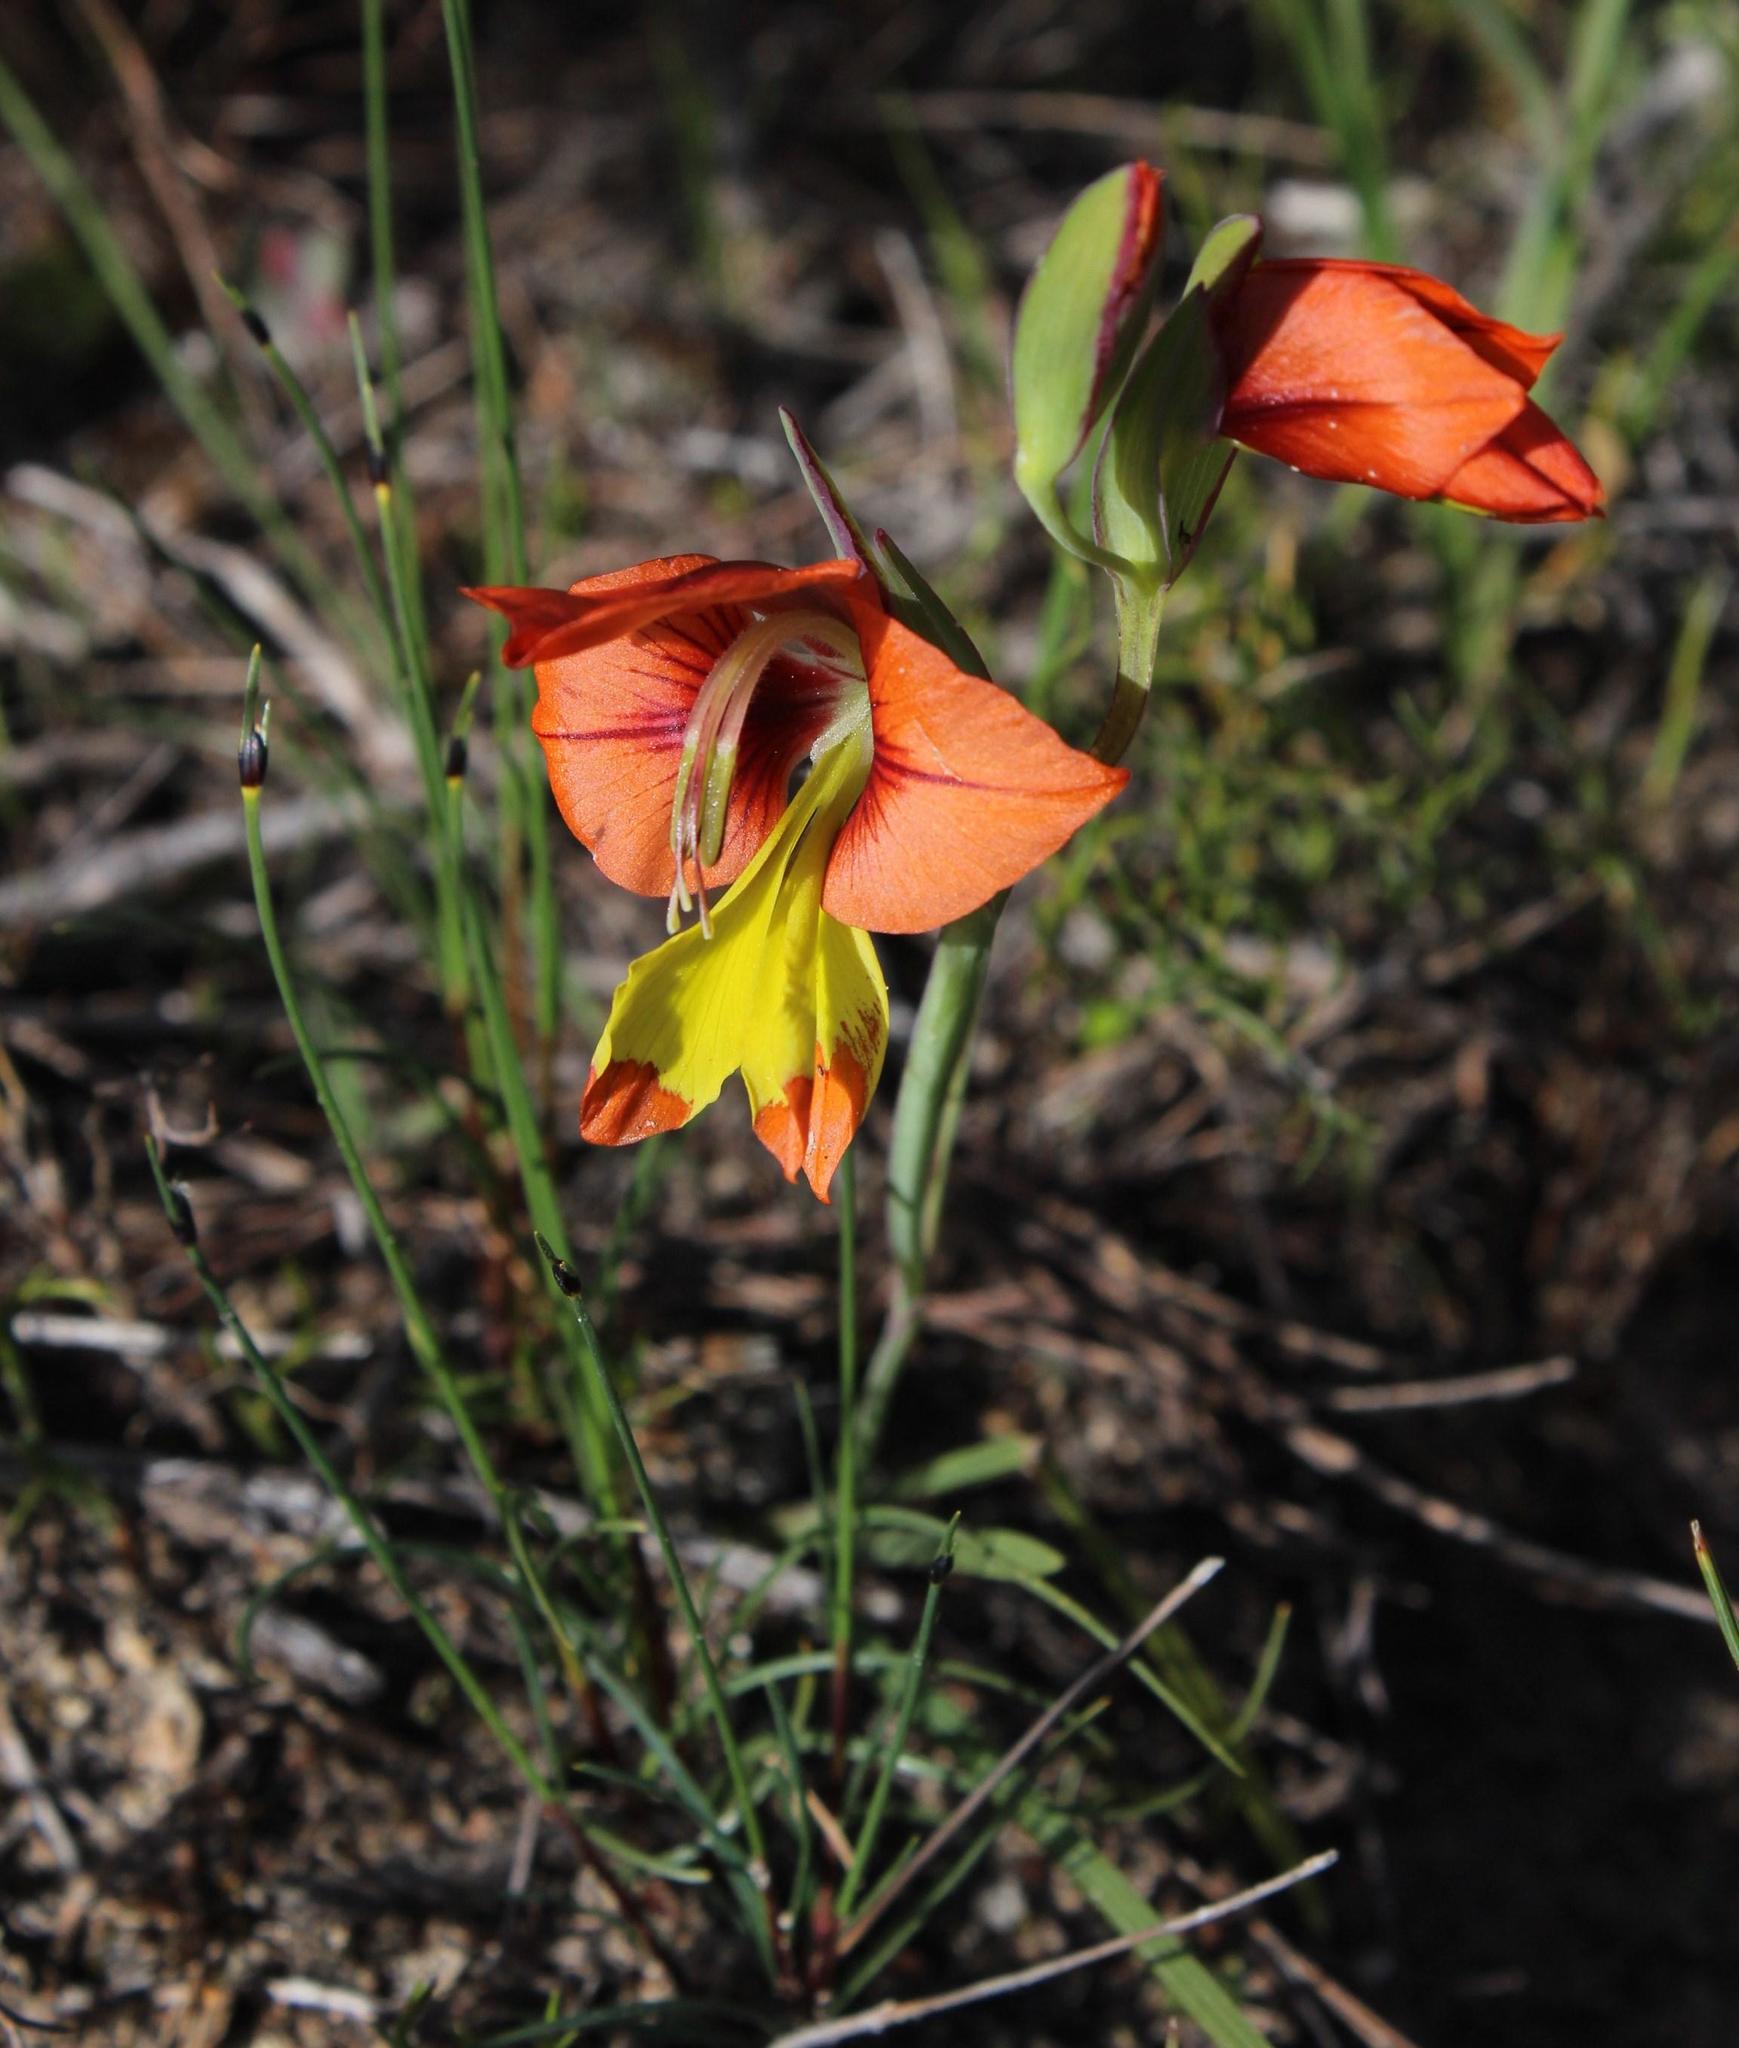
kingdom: Plantae
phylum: Tracheophyta
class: Liliopsida
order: Asparagales
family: Iridaceae
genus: Gladiolus
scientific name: Gladiolus alatus
